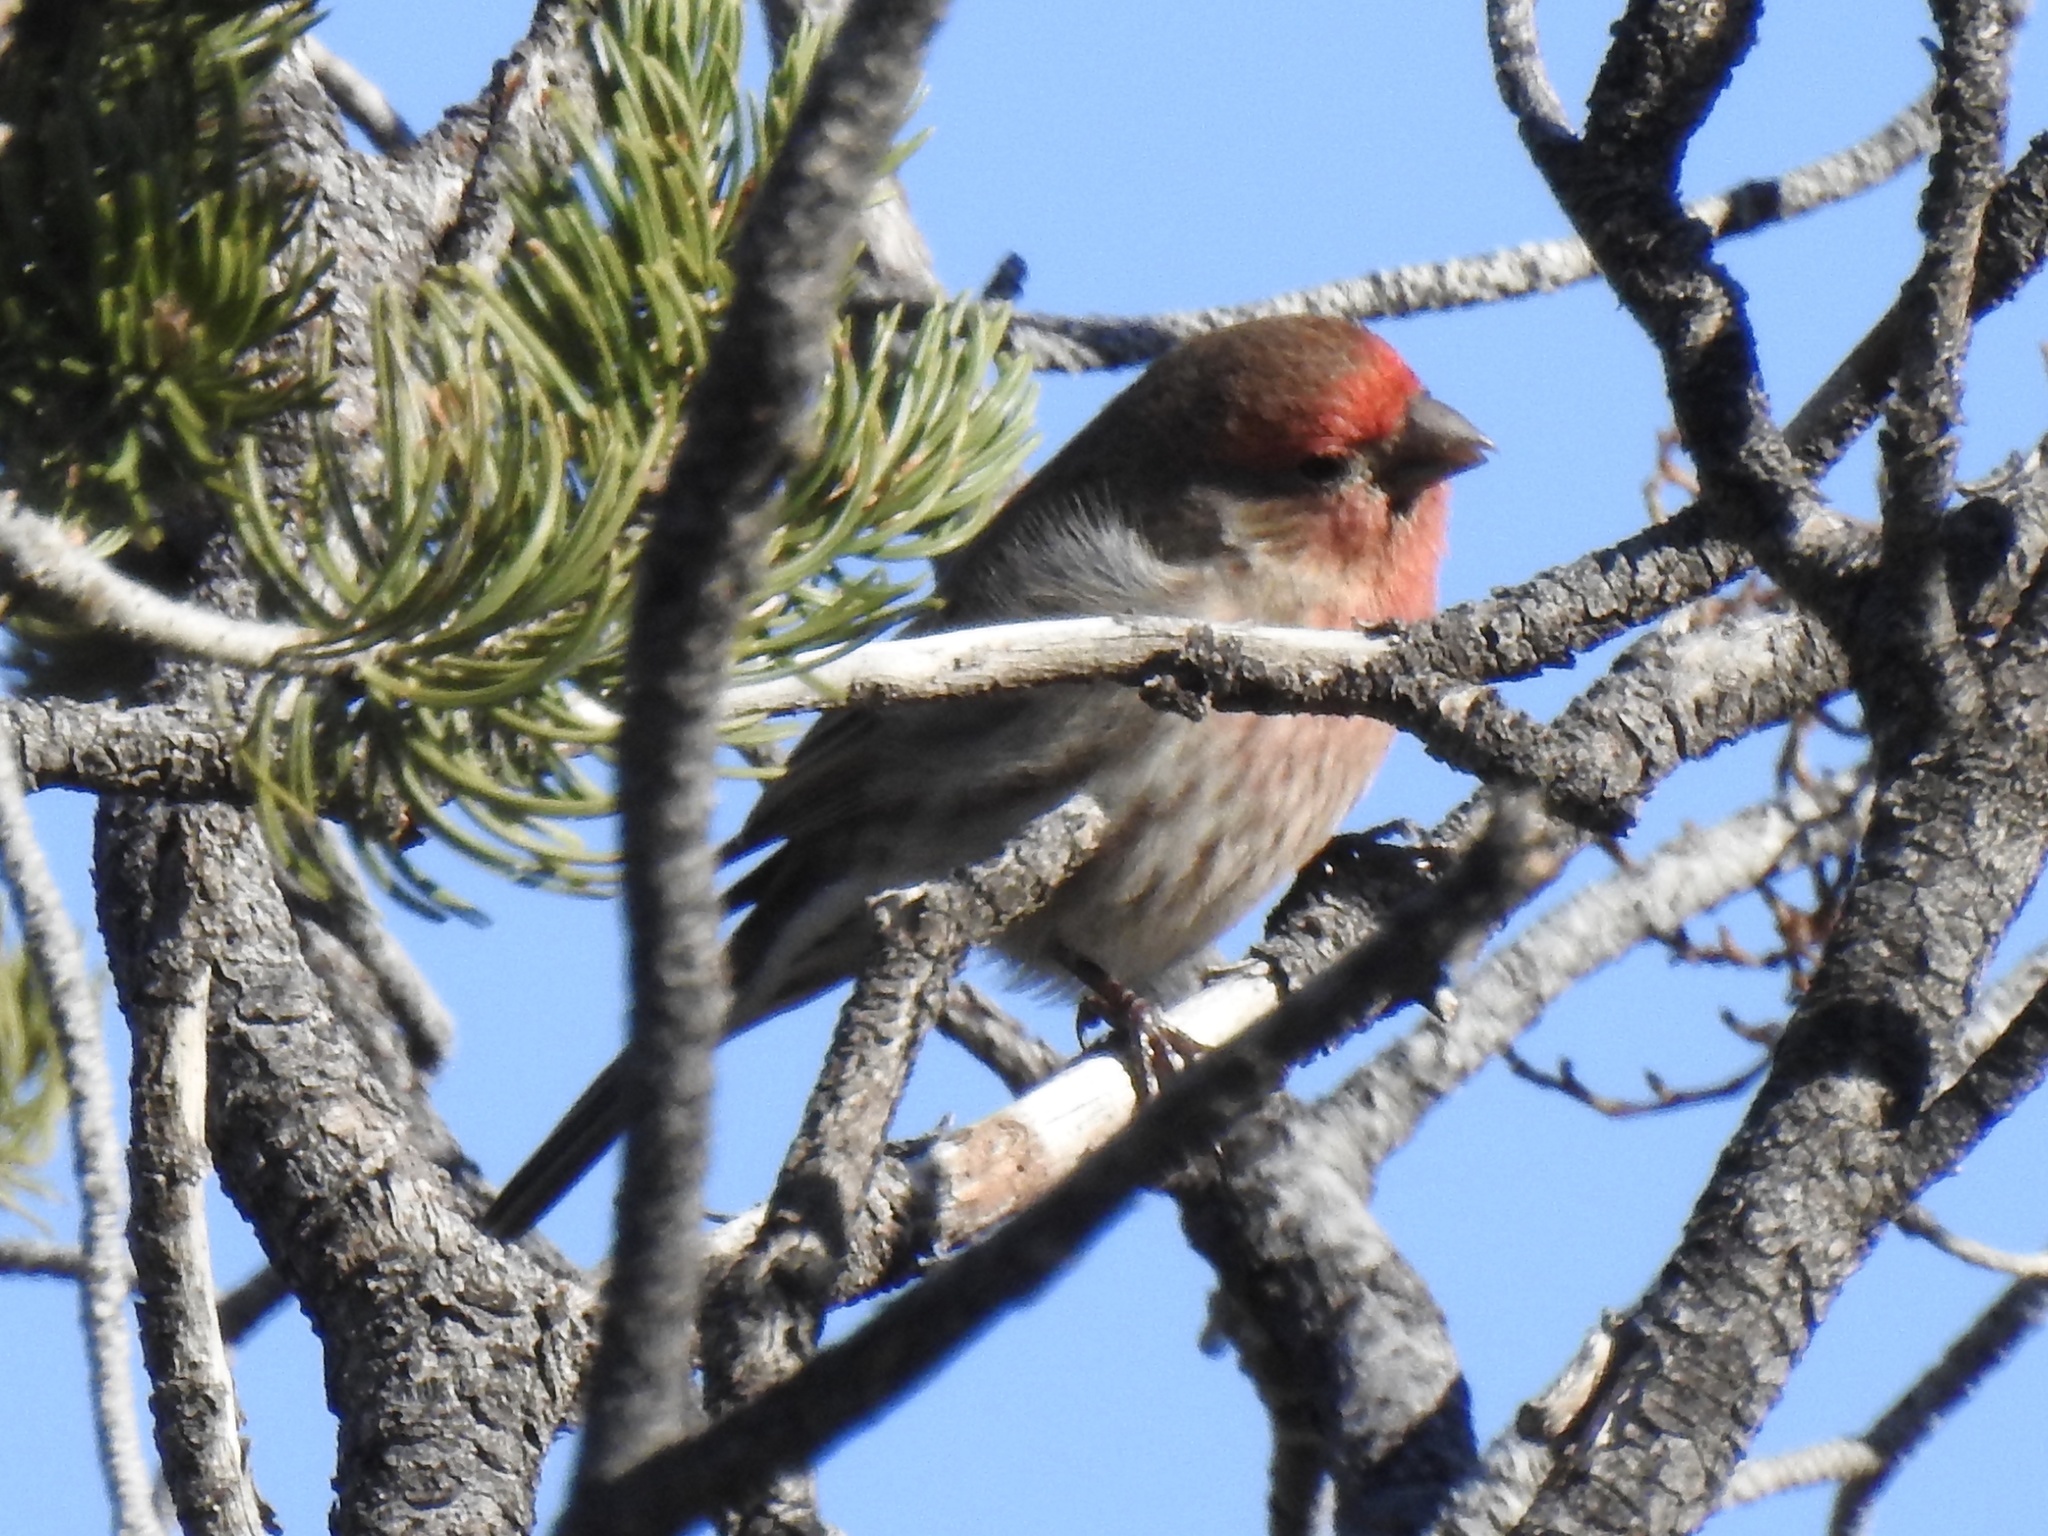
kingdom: Animalia
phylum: Chordata
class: Aves
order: Passeriformes
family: Fringillidae
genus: Haemorhous
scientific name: Haemorhous mexicanus
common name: House finch
